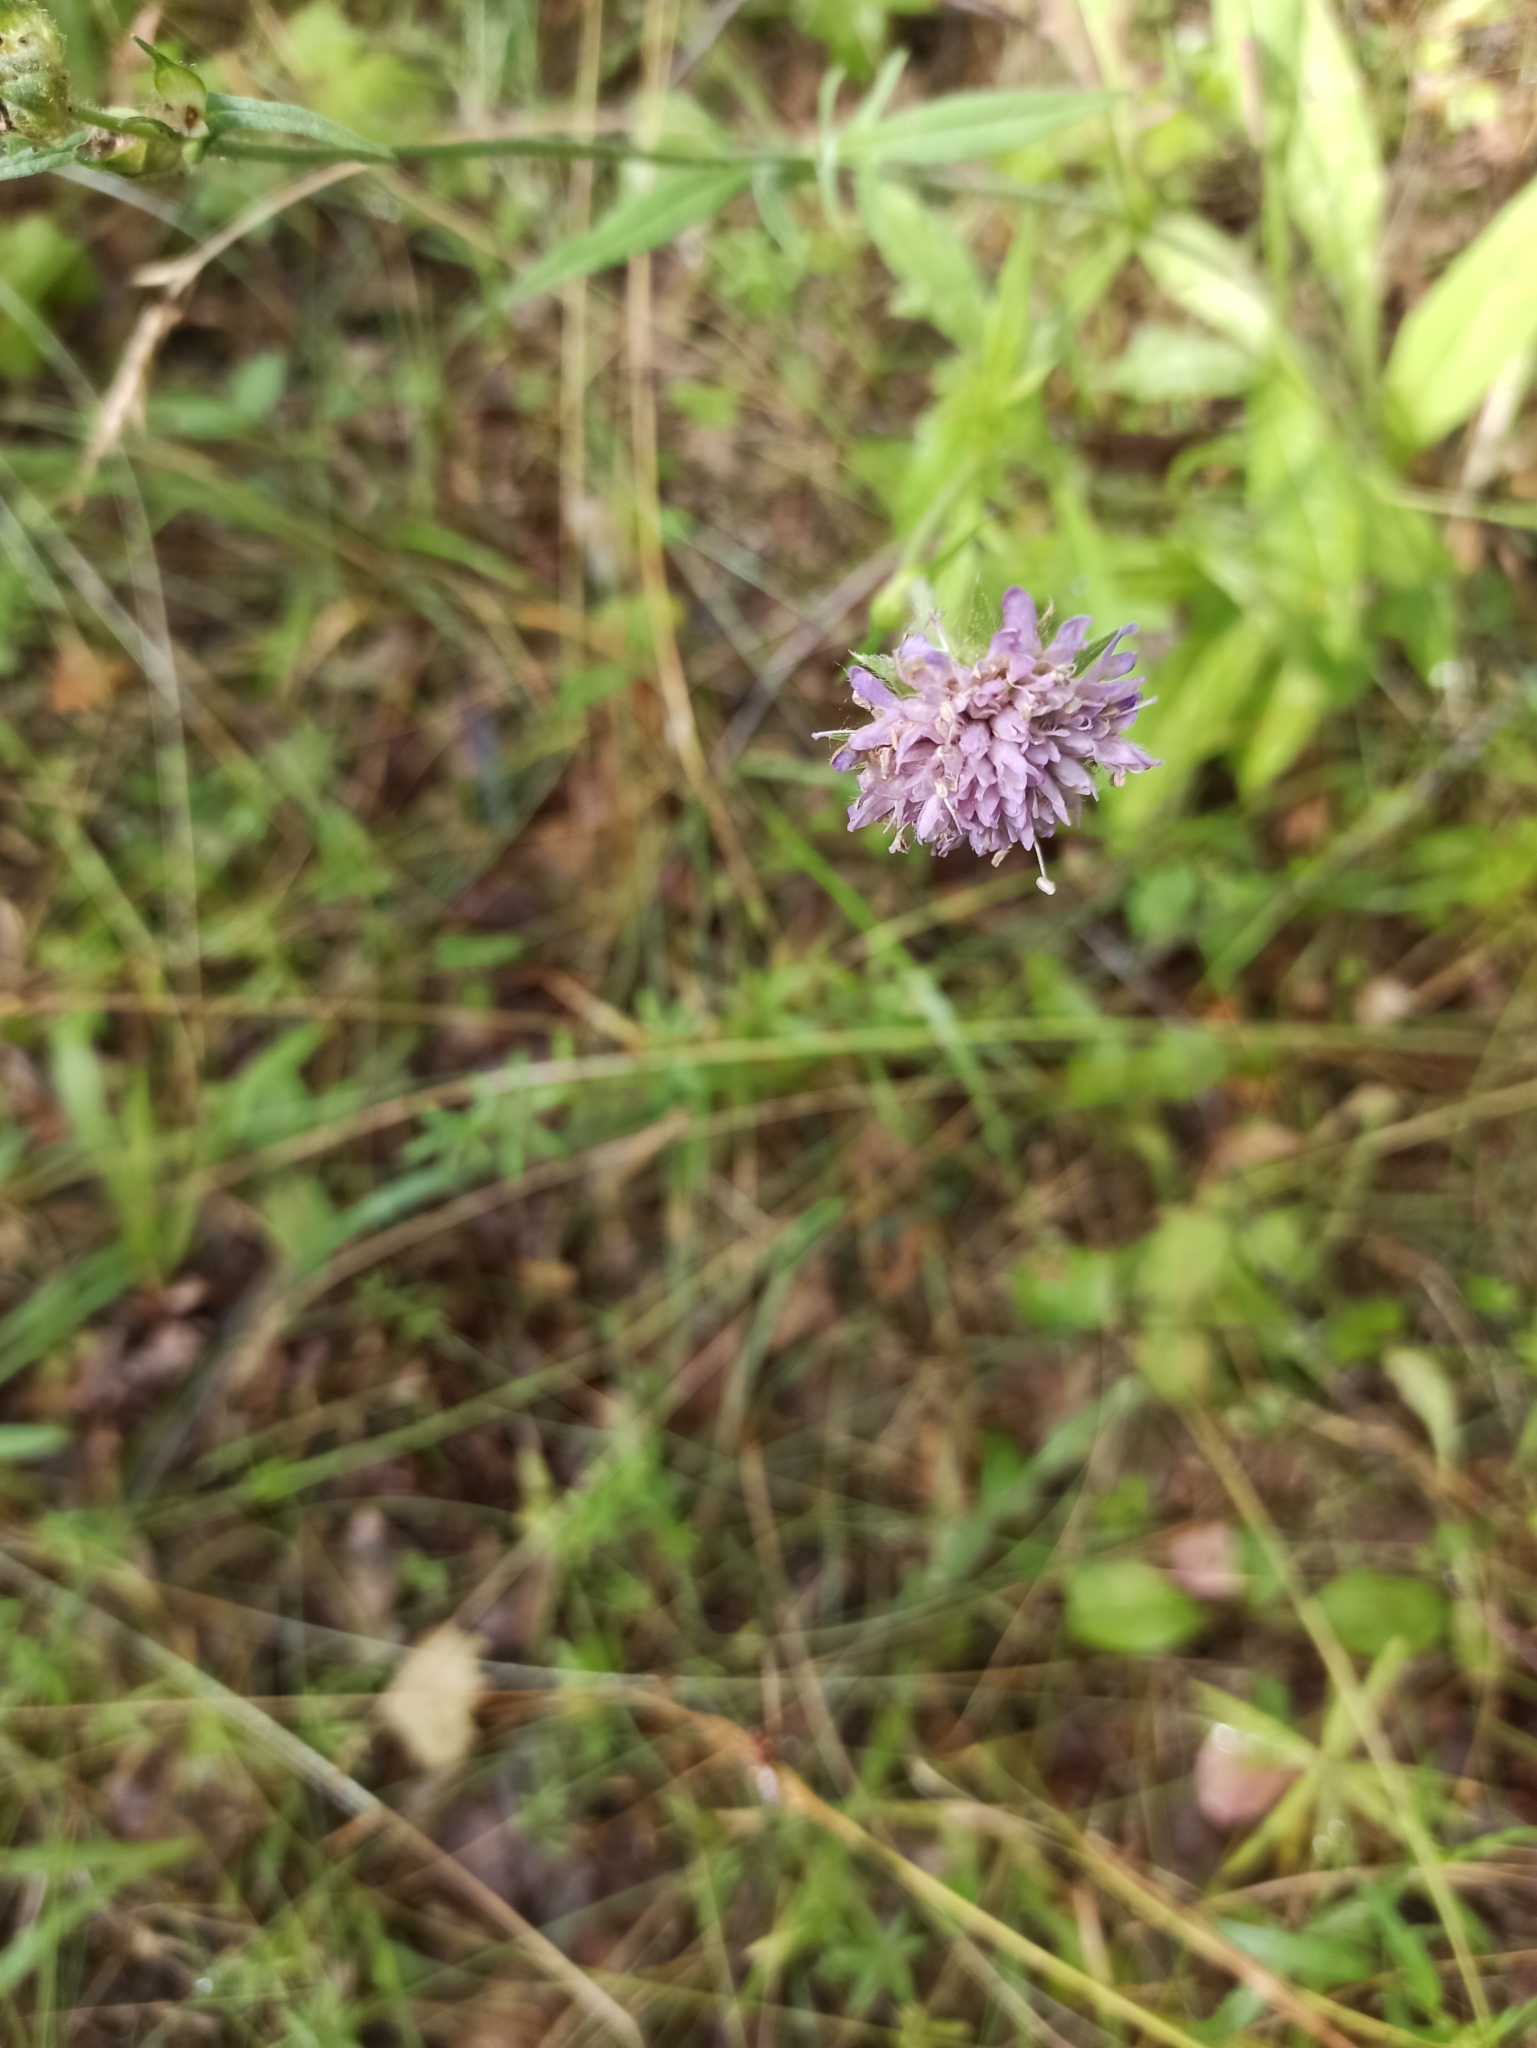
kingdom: Plantae
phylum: Tracheophyta
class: Magnoliopsida
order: Dipsacales
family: Caprifoliaceae
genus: Knautia
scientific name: Knautia arvensis
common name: Field scabiosa
